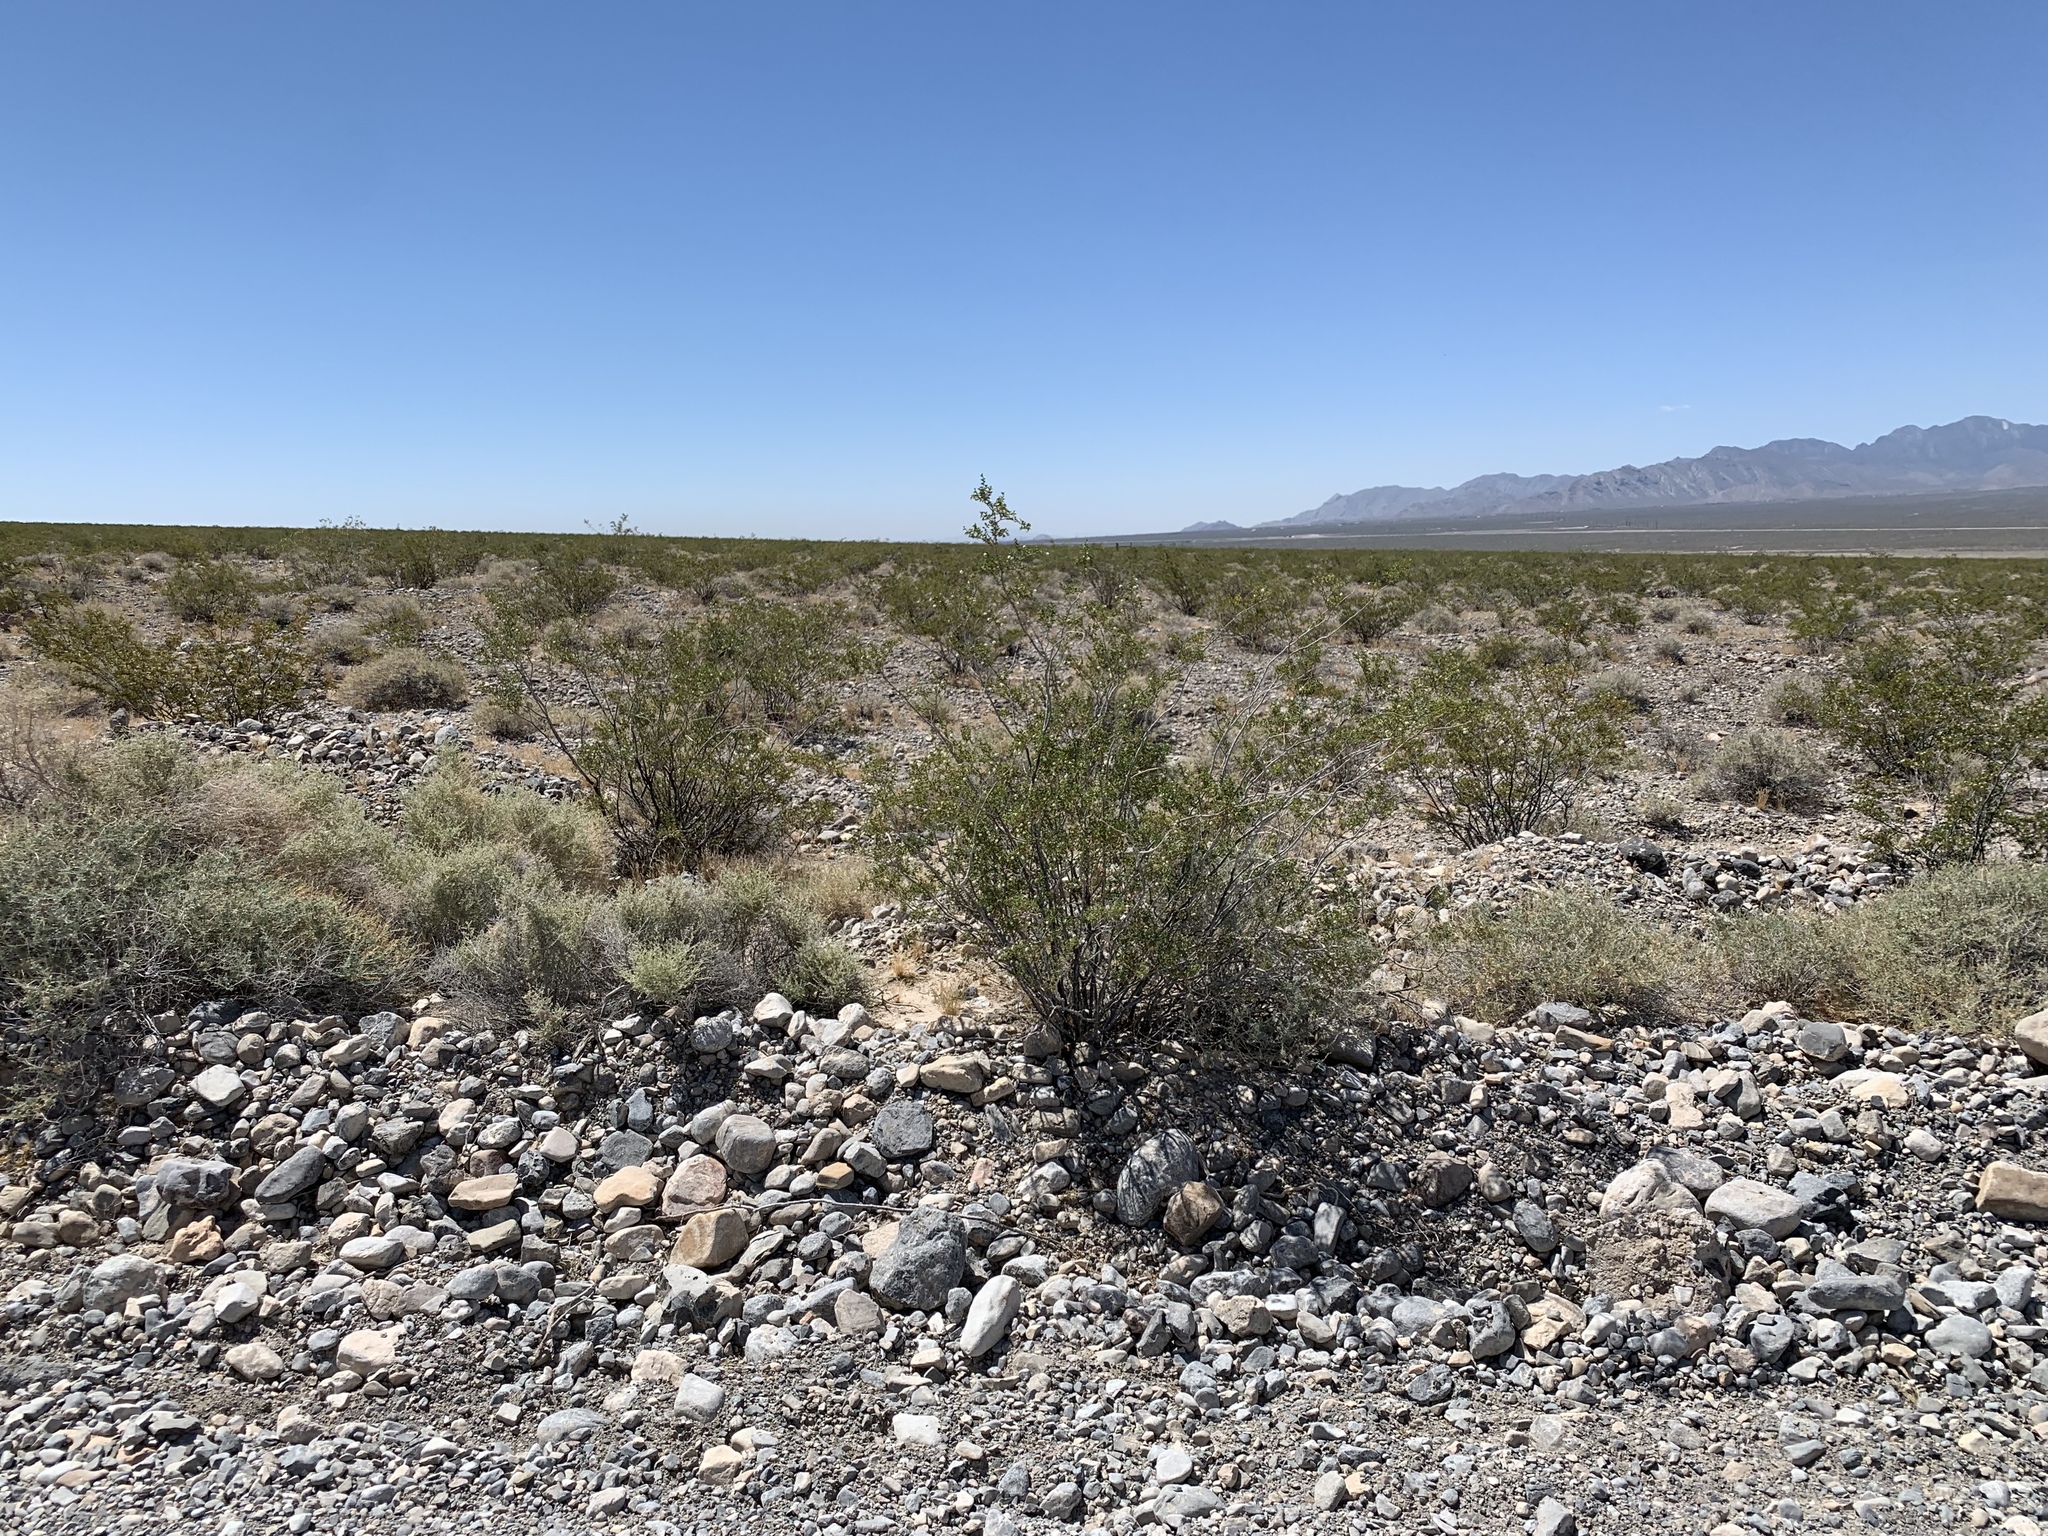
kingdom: Plantae
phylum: Tracheophyta
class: Magnoliopsida
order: Zygophyllales
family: Zygophyllaceae
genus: Larrea
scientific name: Larrea tridentata
